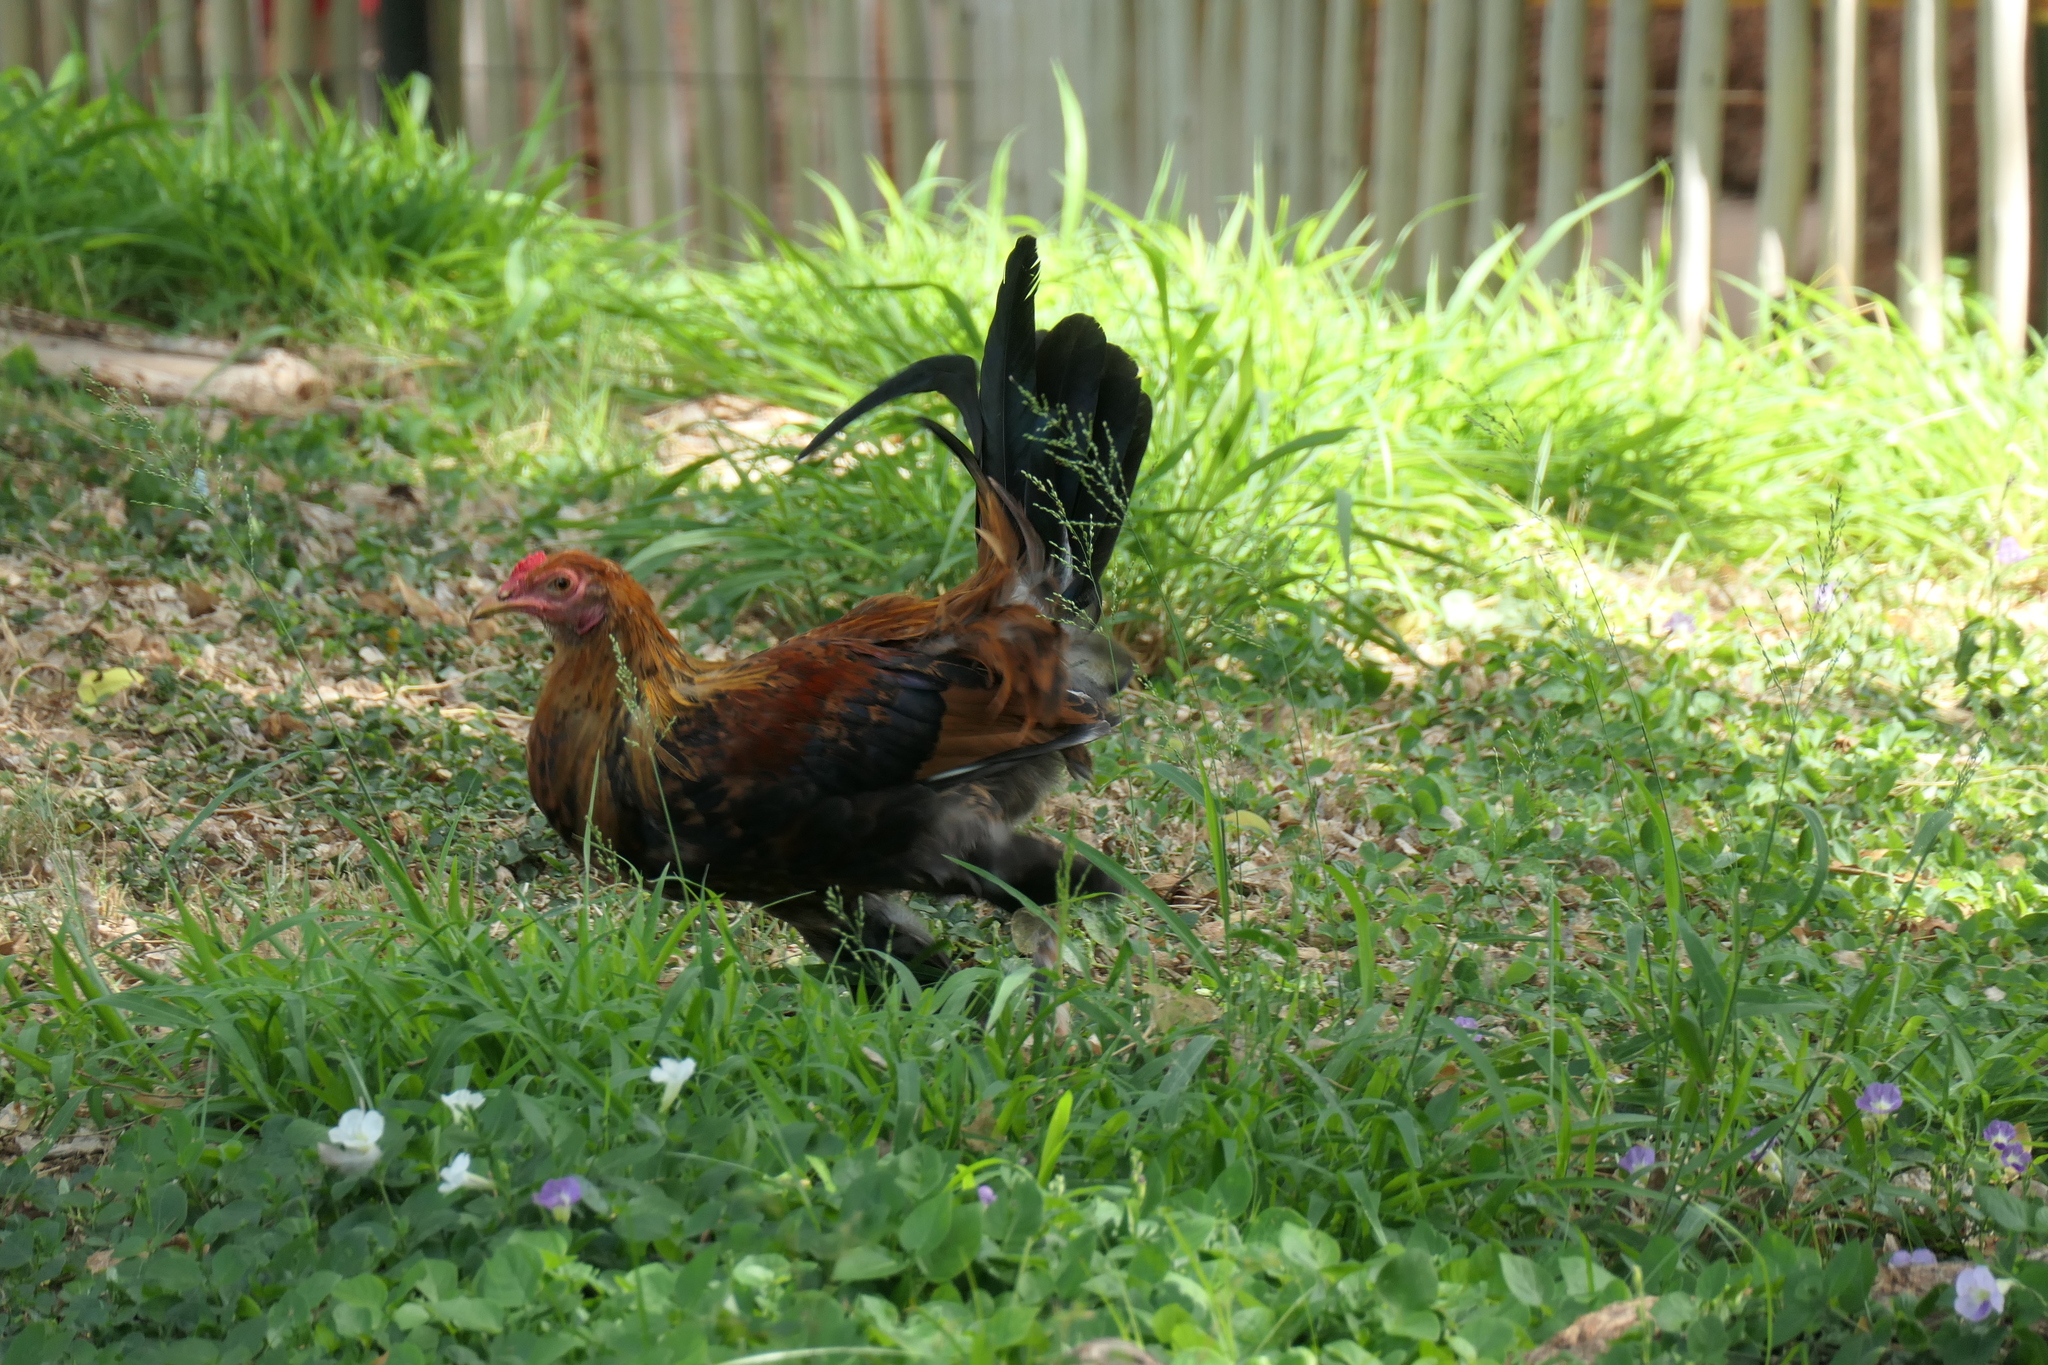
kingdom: Animalia
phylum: Chordata
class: Aves
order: Galliformes
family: Phasianidae
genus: Gallus
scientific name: Gallus gallus
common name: Red junglefowl
